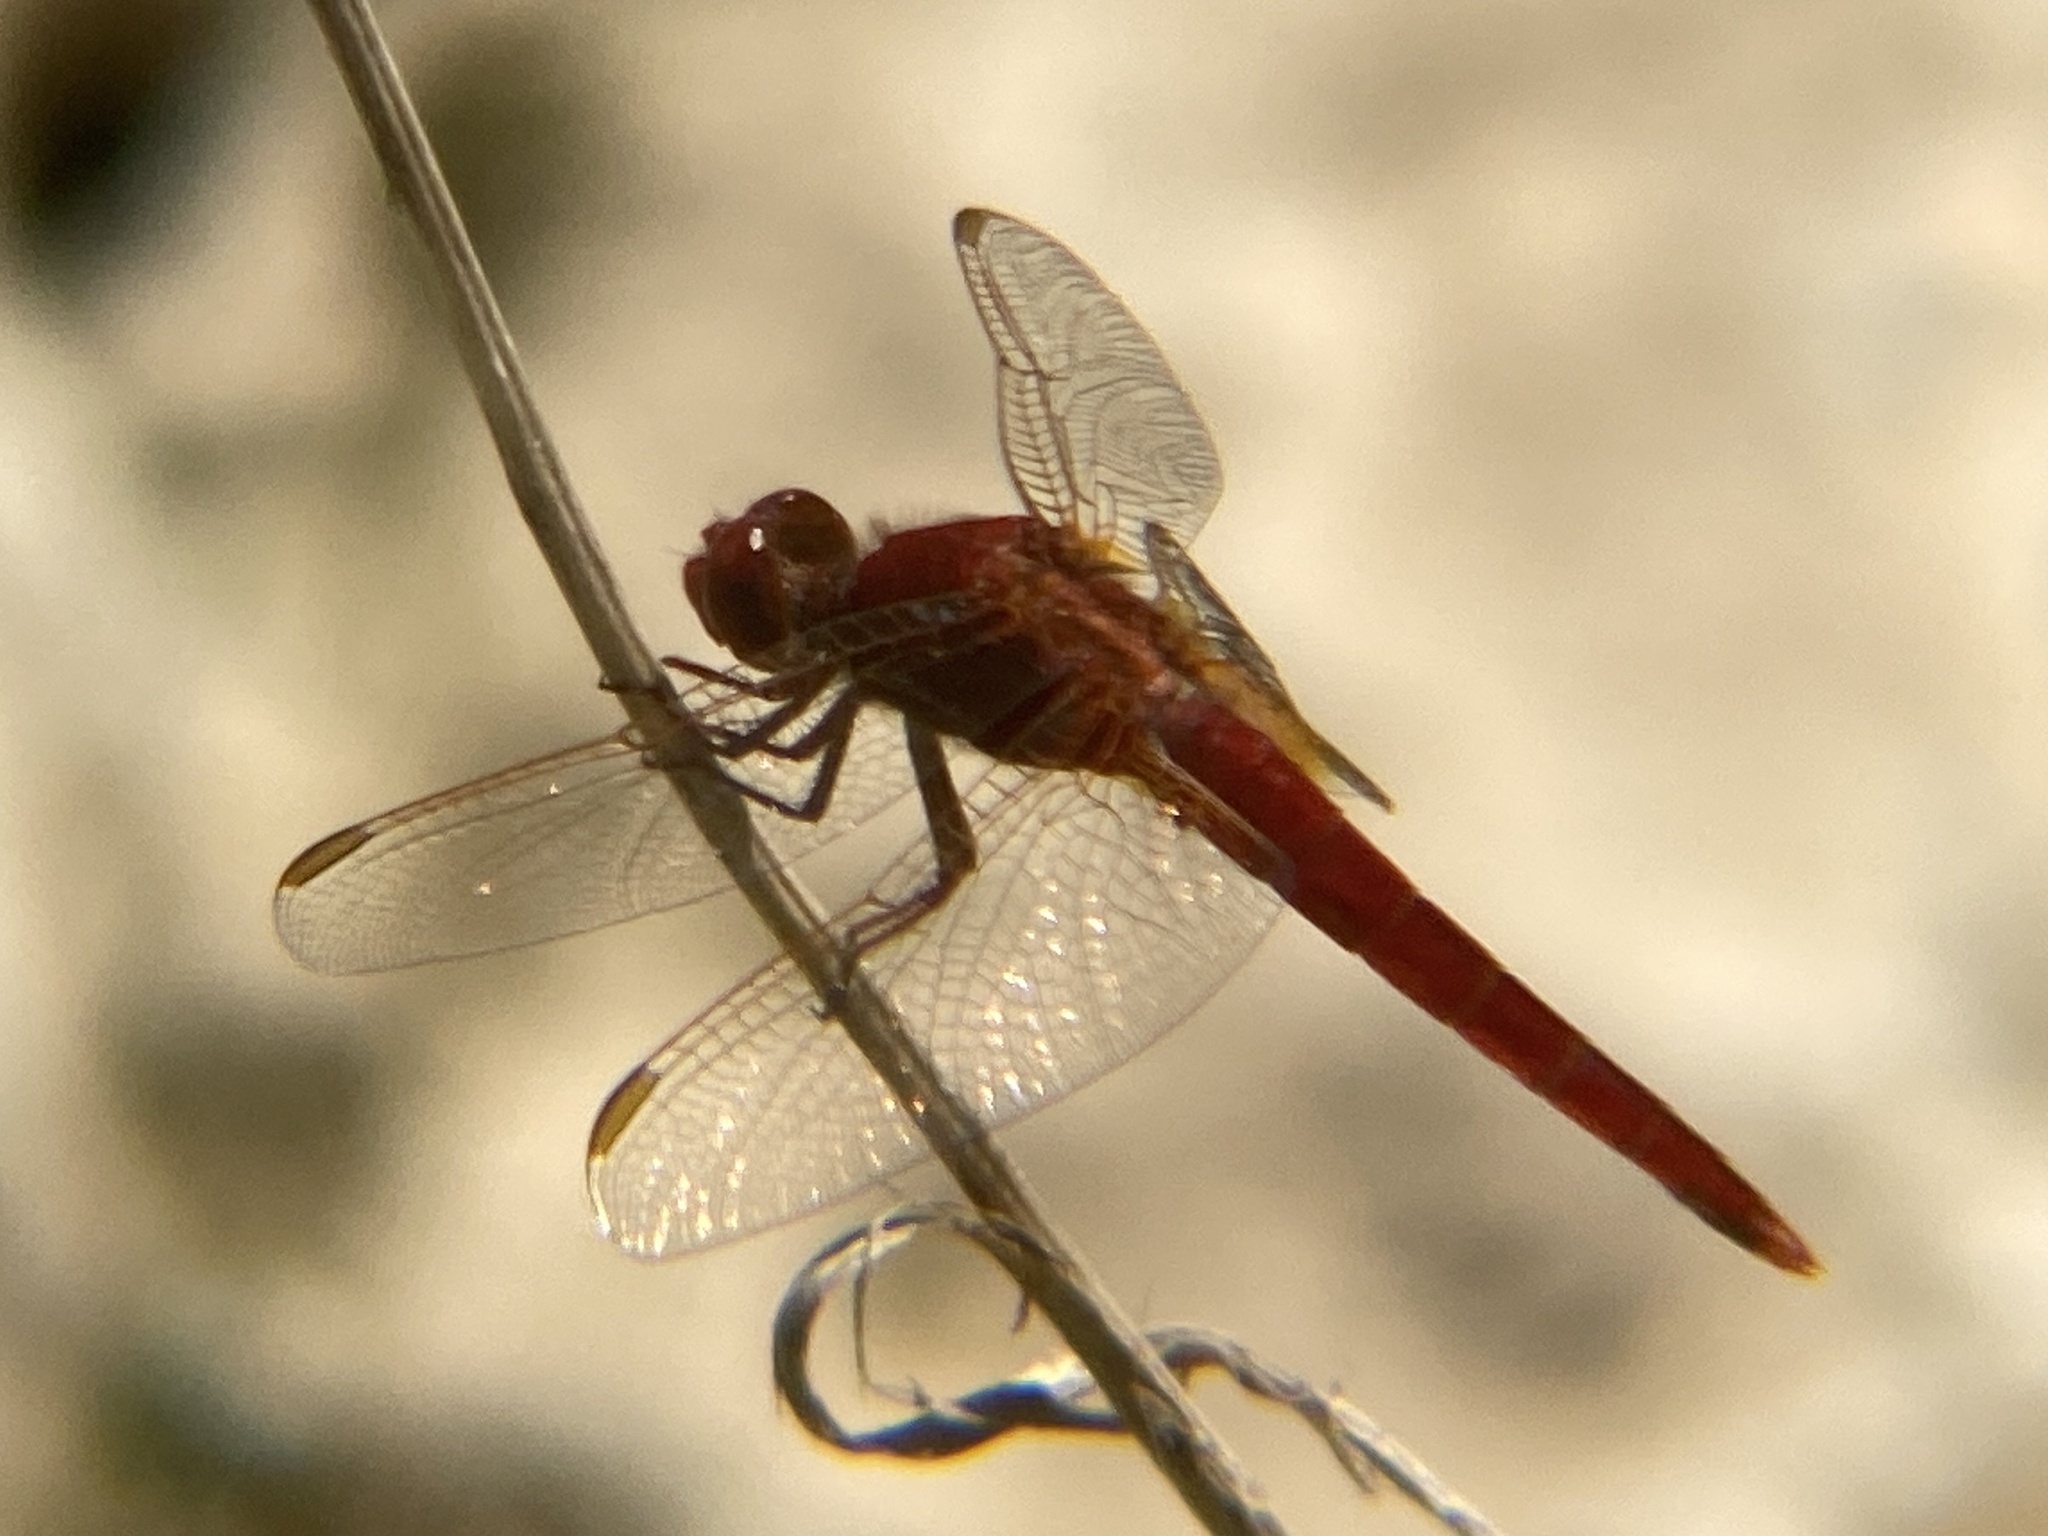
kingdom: Animalia
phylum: Arthropoda
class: Insecta
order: Odonata
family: Libellulidae
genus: Crocothemis
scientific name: Crocothemis erythraea
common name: Scarlet dragonfly
